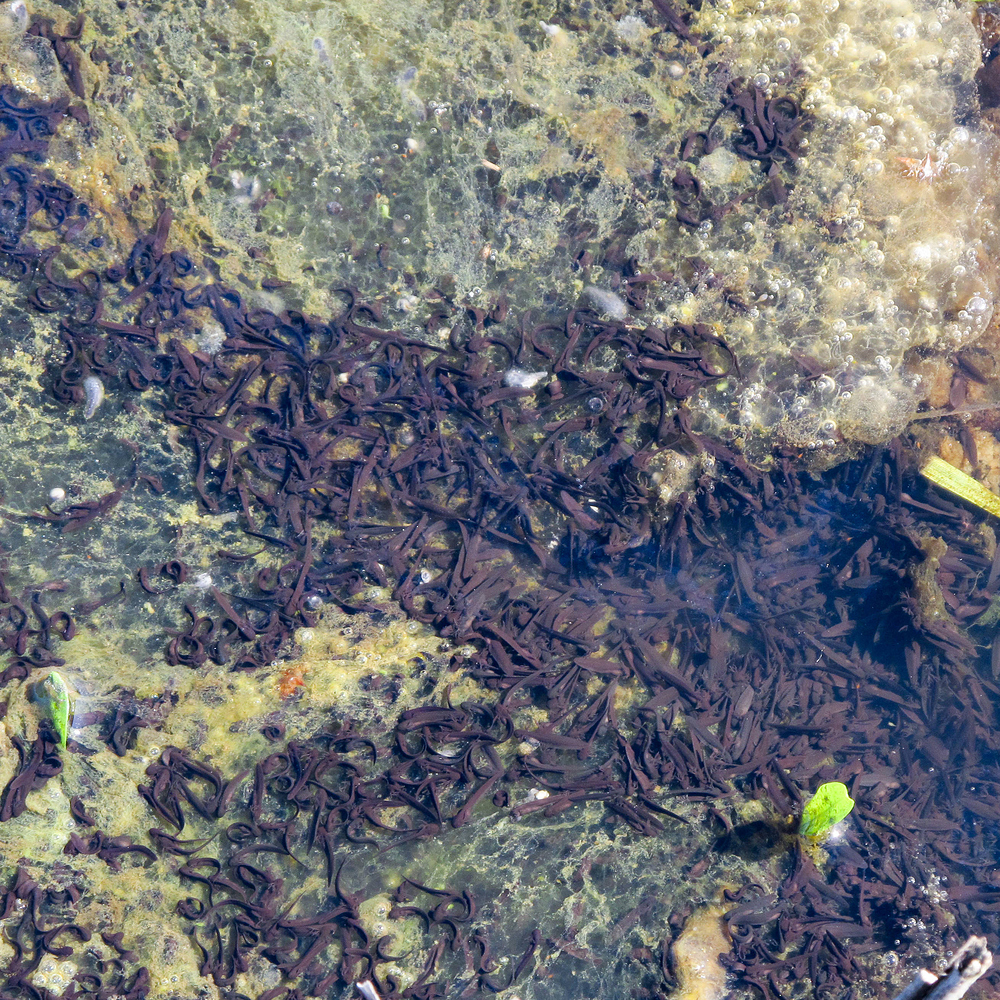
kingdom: Animalia
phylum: Chordata
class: Amphibia
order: Anura
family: Ranidae
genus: Rana
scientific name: Rana temporaria
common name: Common frog
